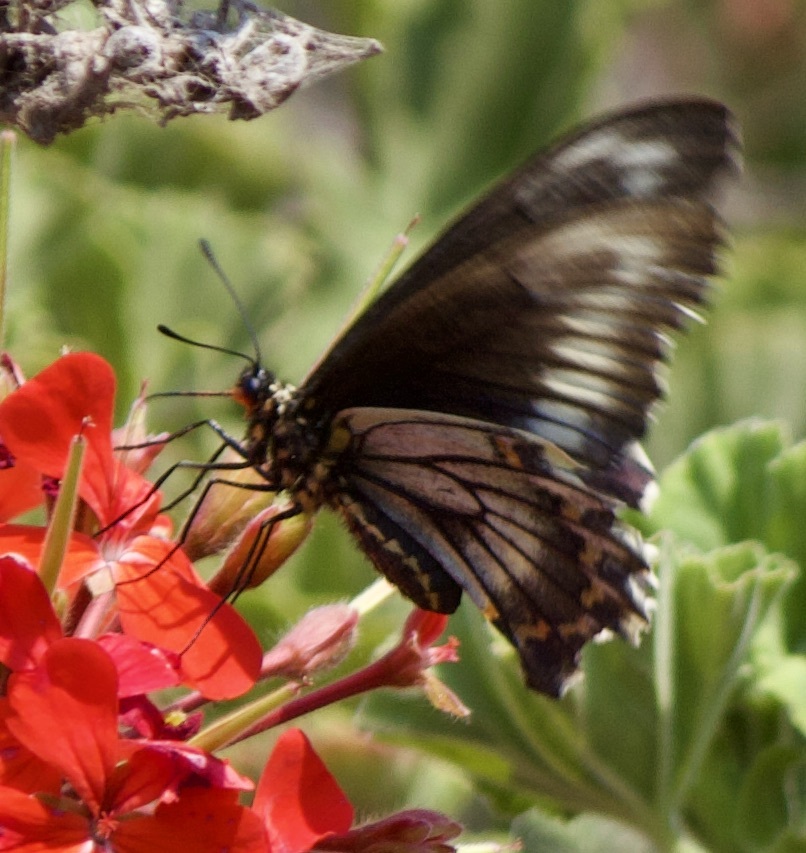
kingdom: Animalia
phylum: Arthropoda
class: Insecta
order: Lepidoptera
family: Papilionidae
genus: Battus
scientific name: Battus polydamas
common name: Polydamas swallowtail
